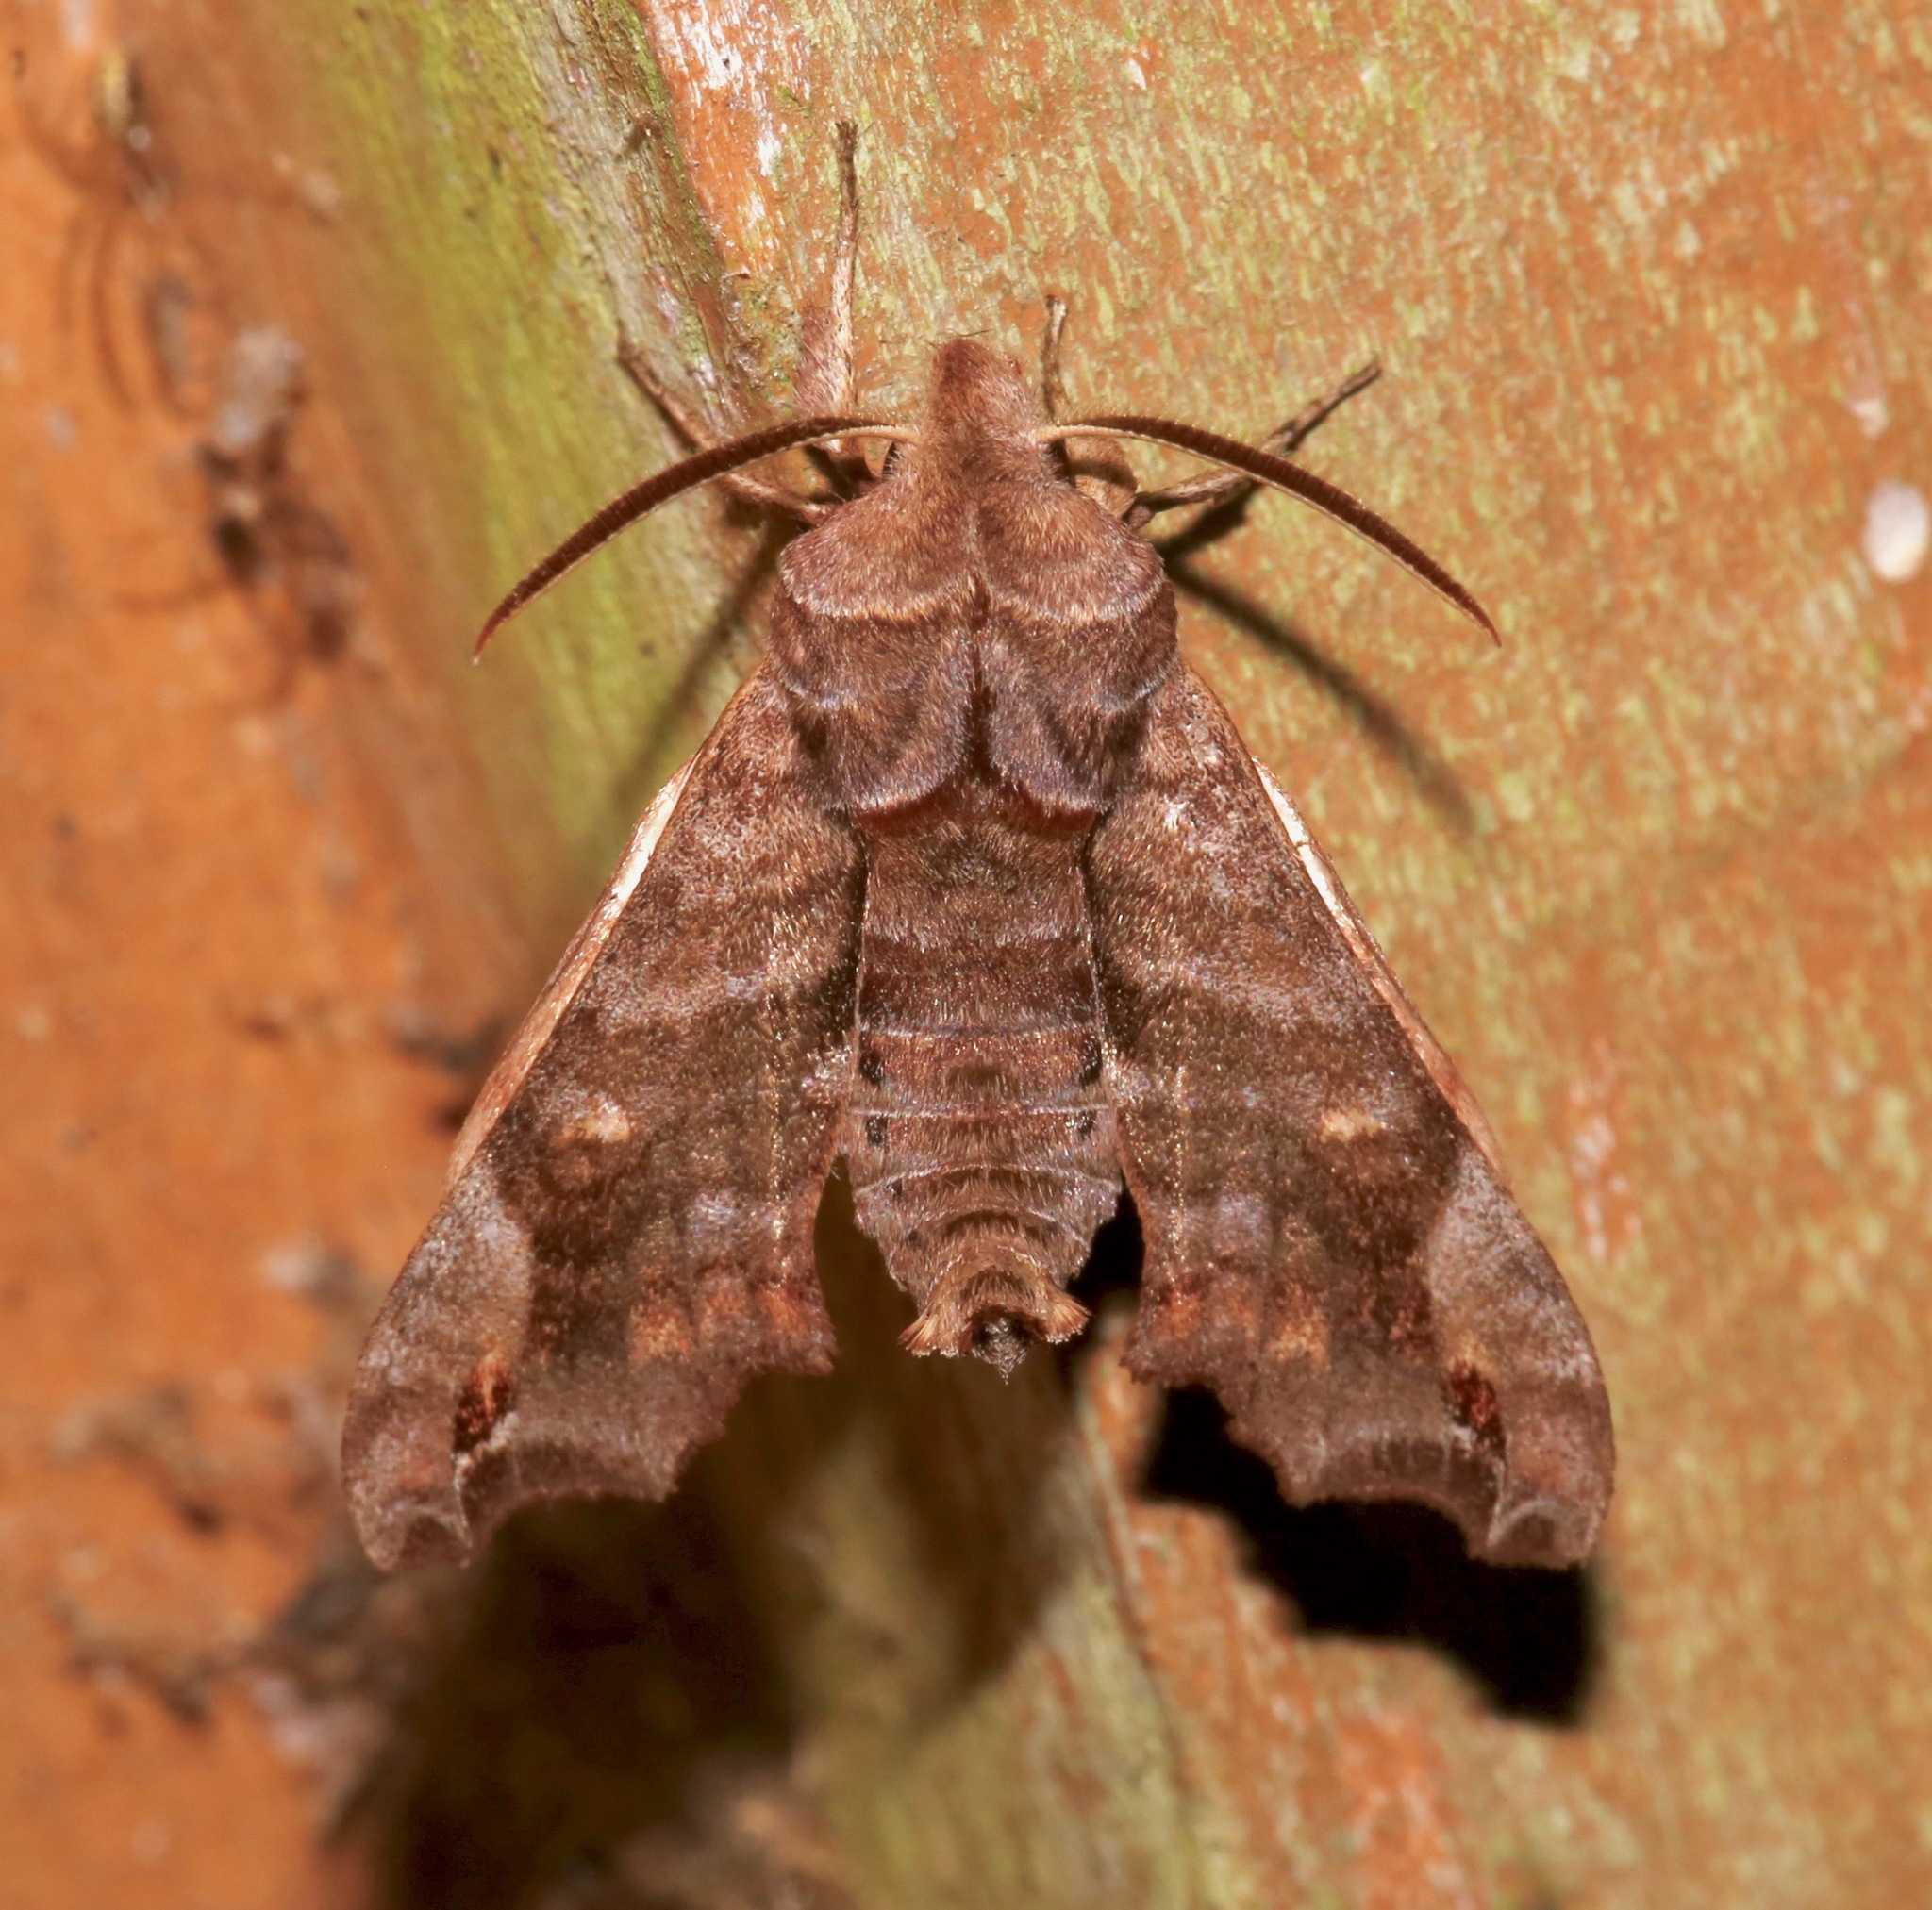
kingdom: Animalia
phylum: Arthropoda
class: Insecta
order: Lepidoptera
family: Sphingidae
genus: Deidamia
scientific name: Deidamia inscriptum
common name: Lettered sphinx
